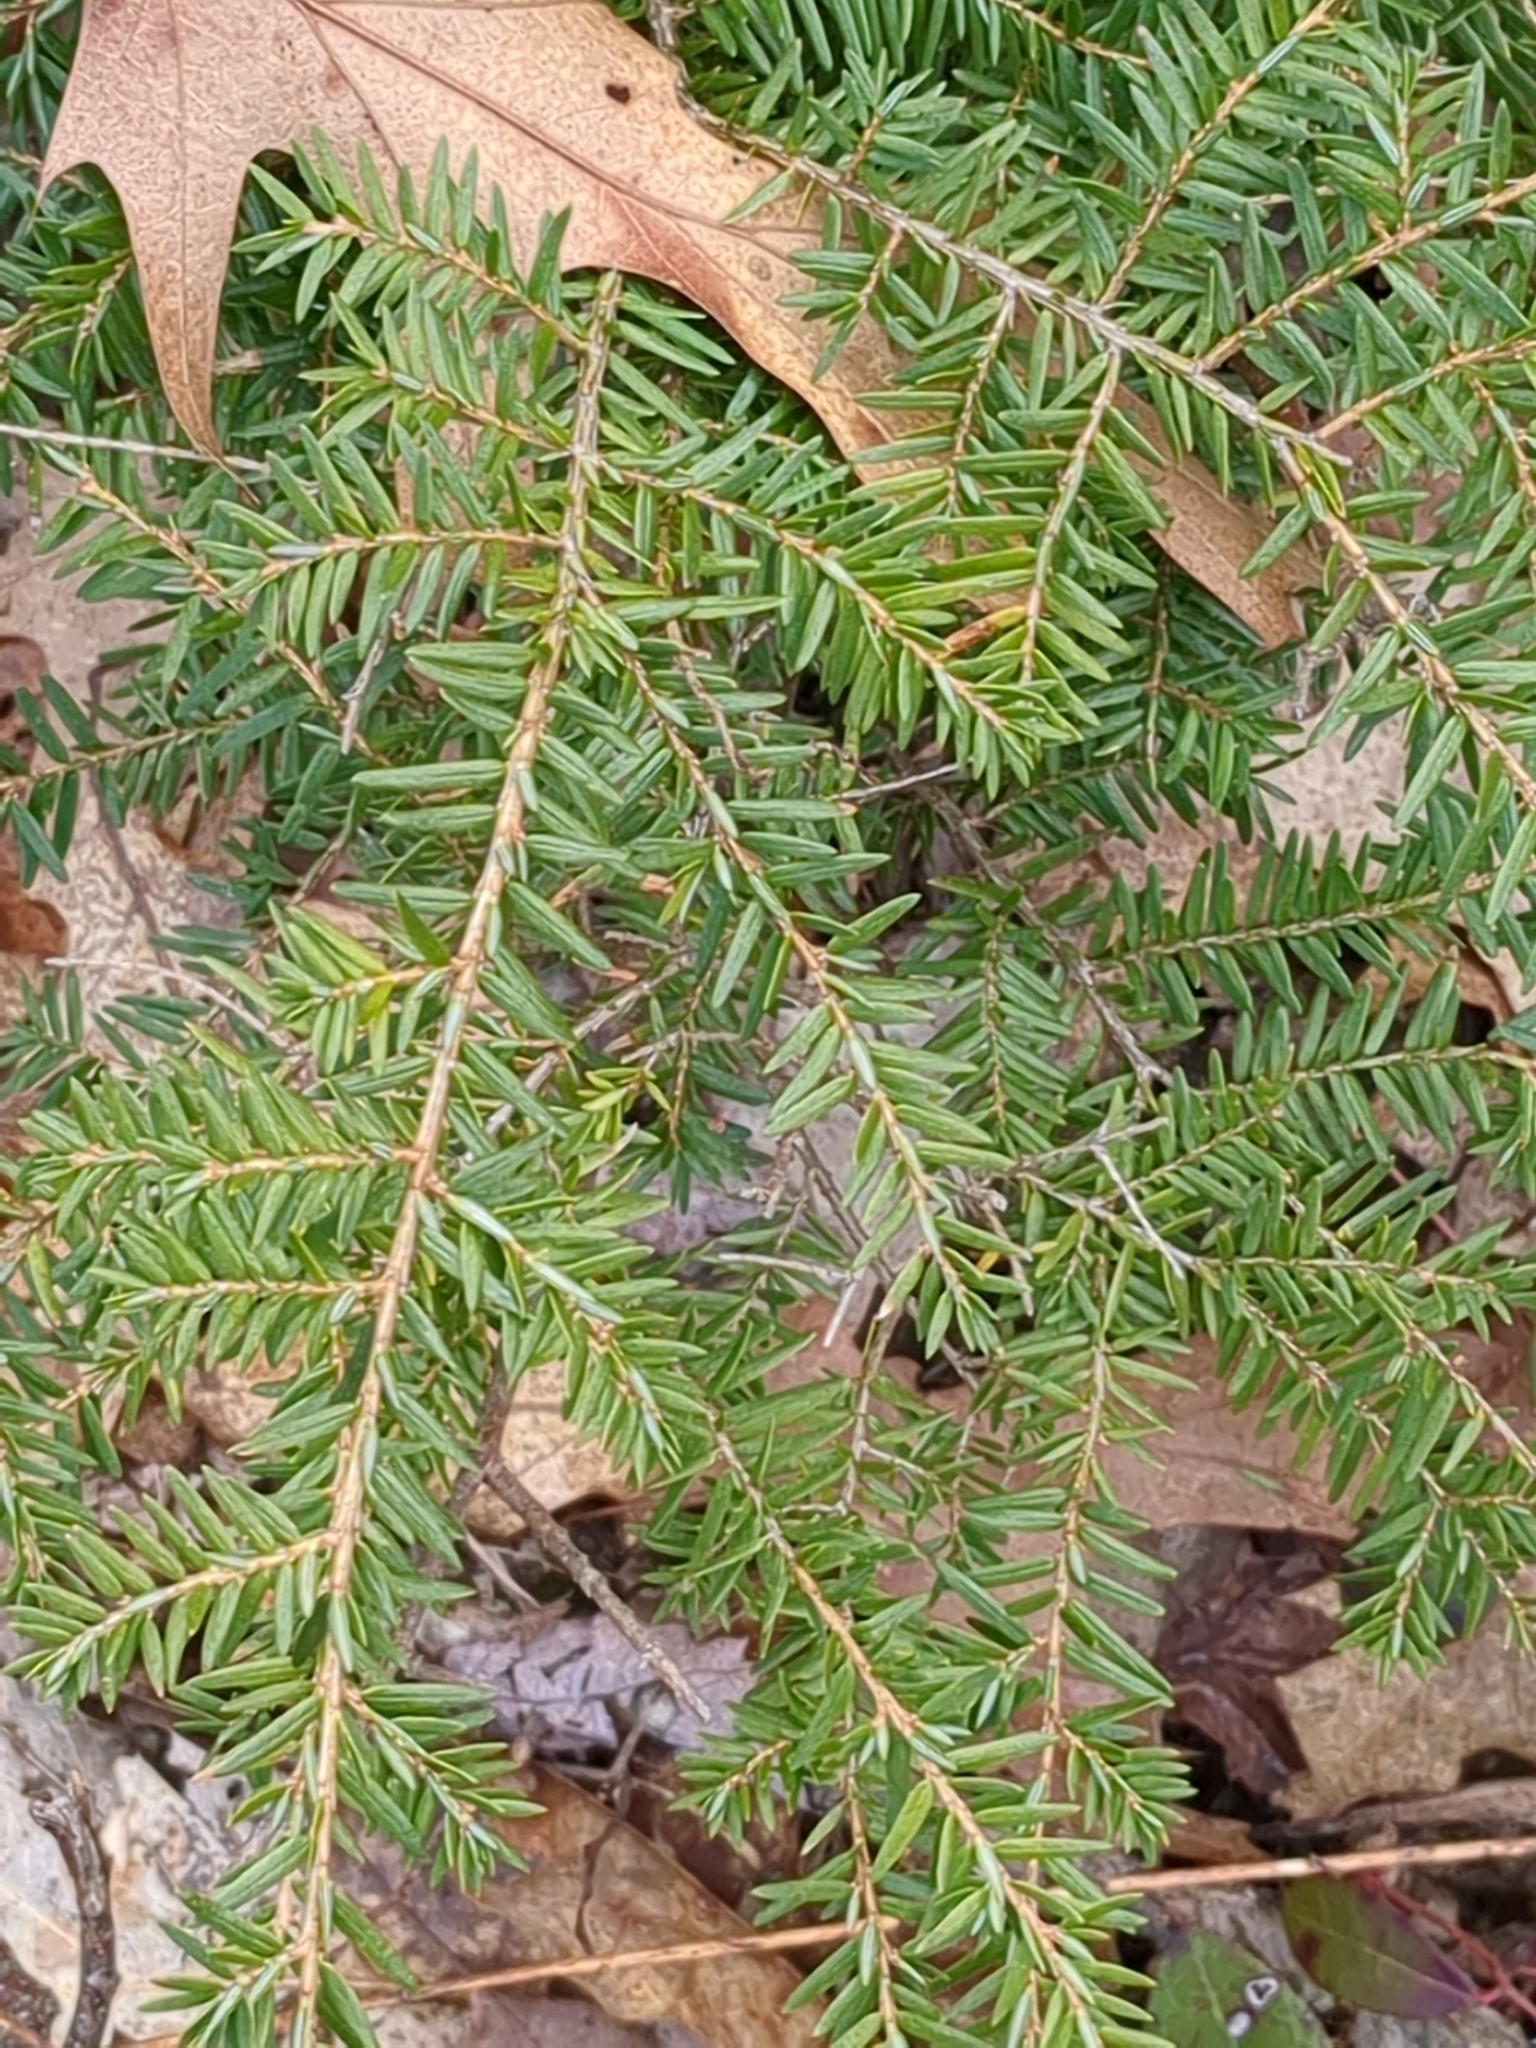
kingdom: Plantae
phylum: Tracheophyta
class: Pinopsida
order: Pinales
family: Pinaceae
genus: Tsuga
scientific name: Tsuga canadensis
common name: Eastern hemlock
